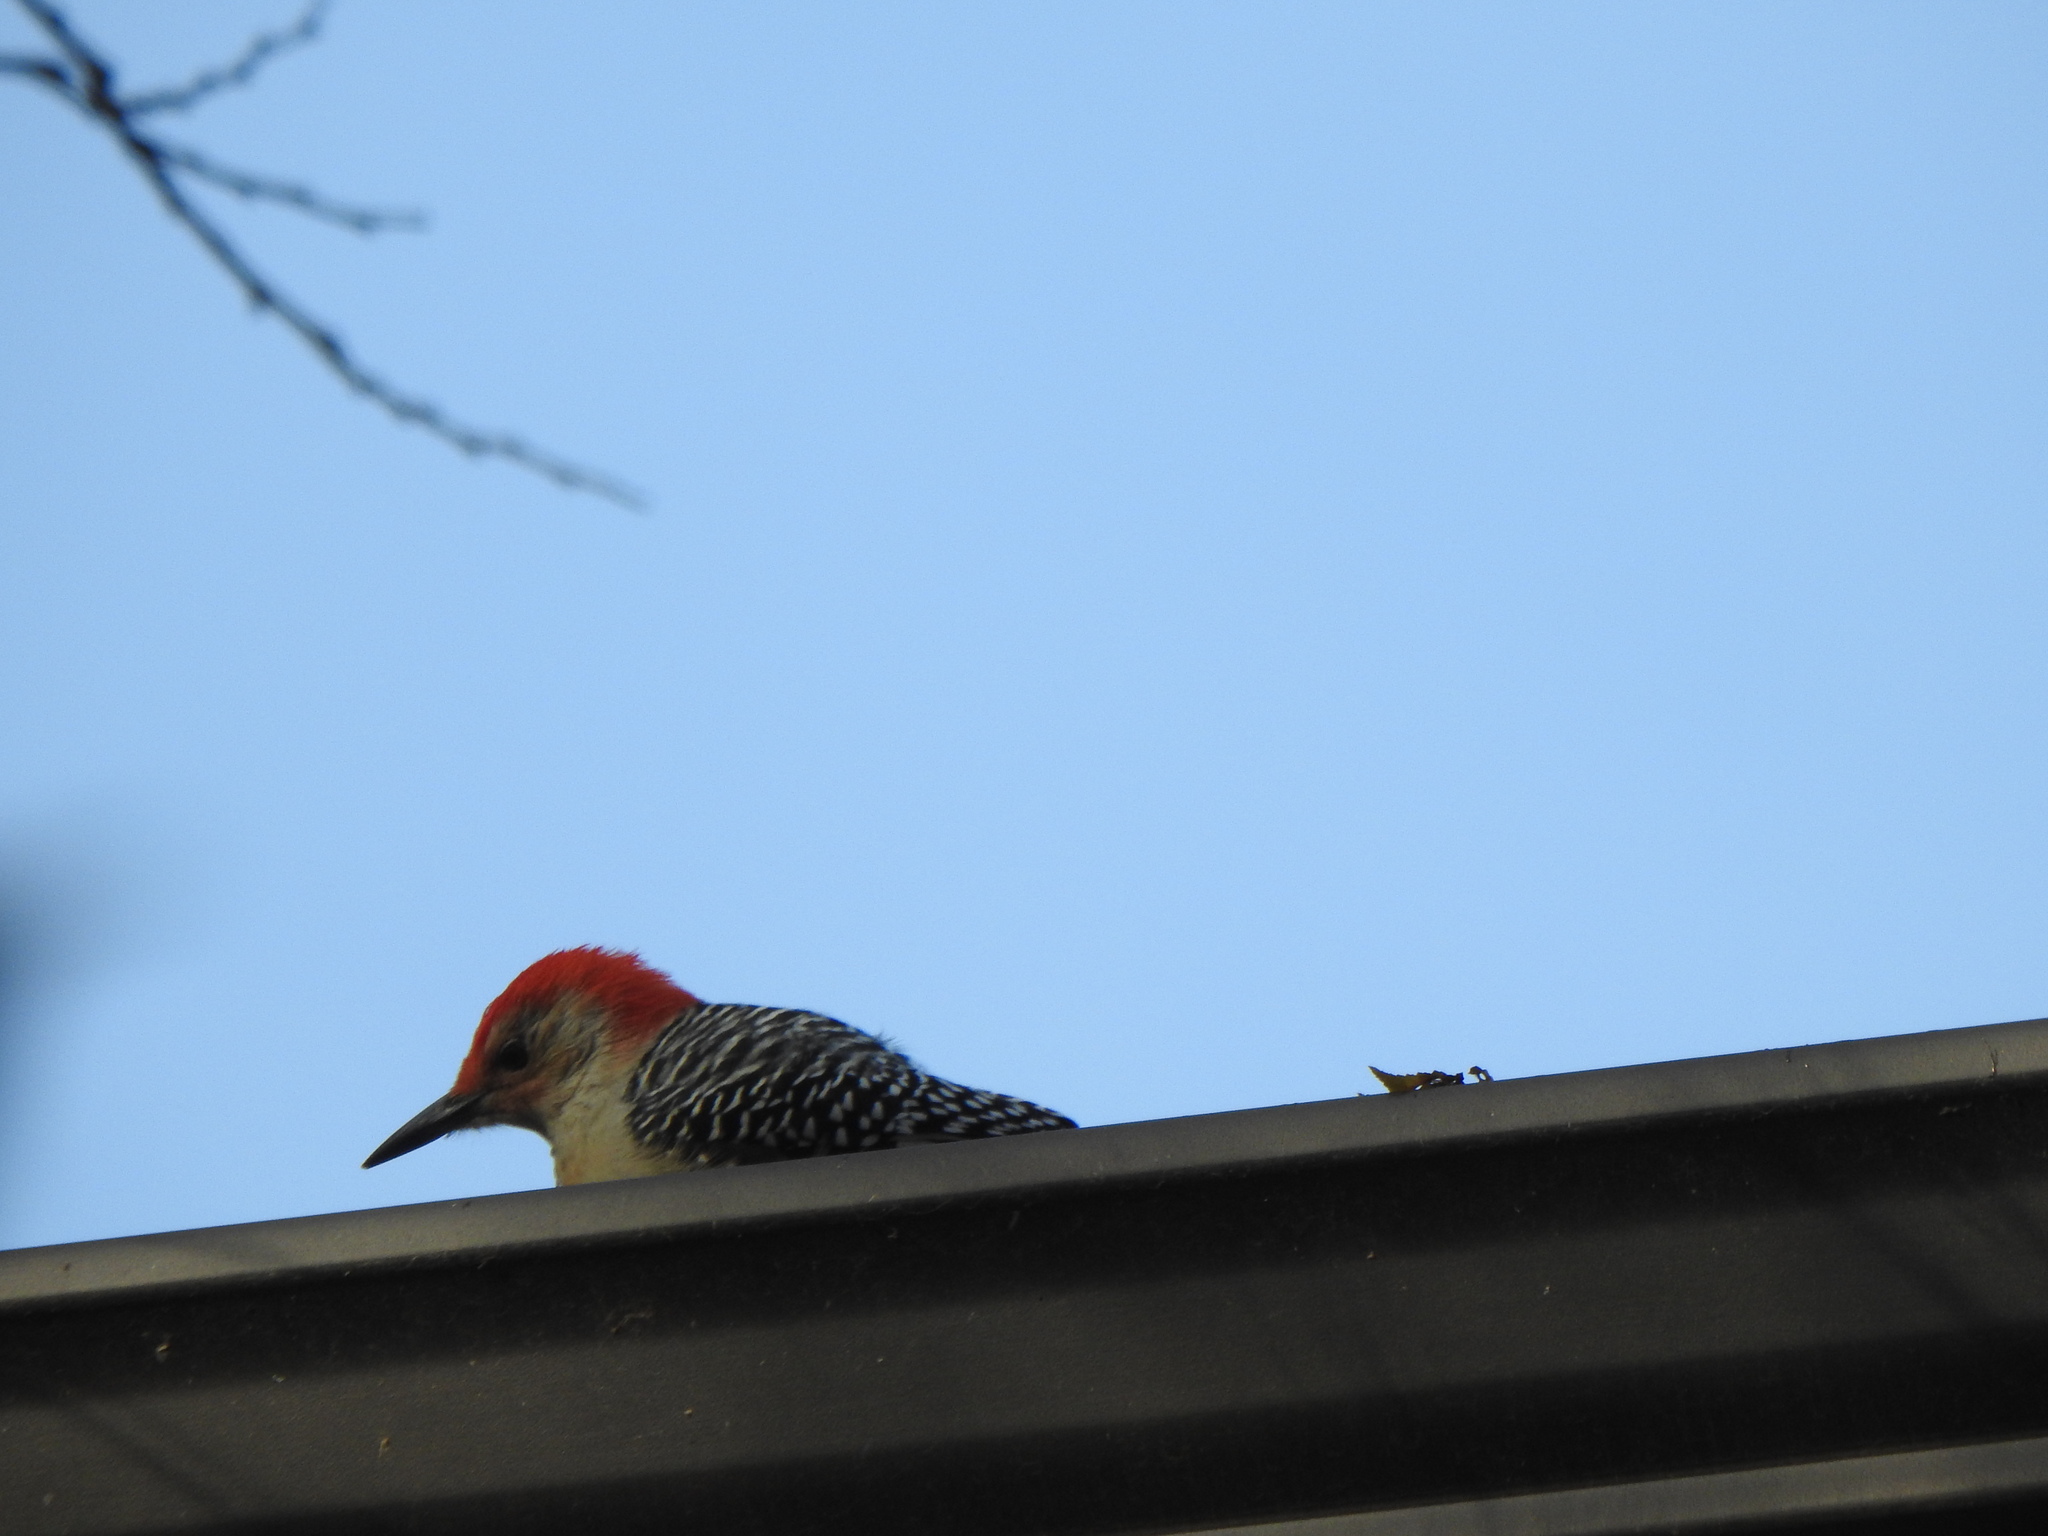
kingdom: Animalia
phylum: Chordata
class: Aves
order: Piciformes
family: Picidae
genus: Melanerpes
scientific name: Melanerpes carolinus
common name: Red-bellied woodpecker
